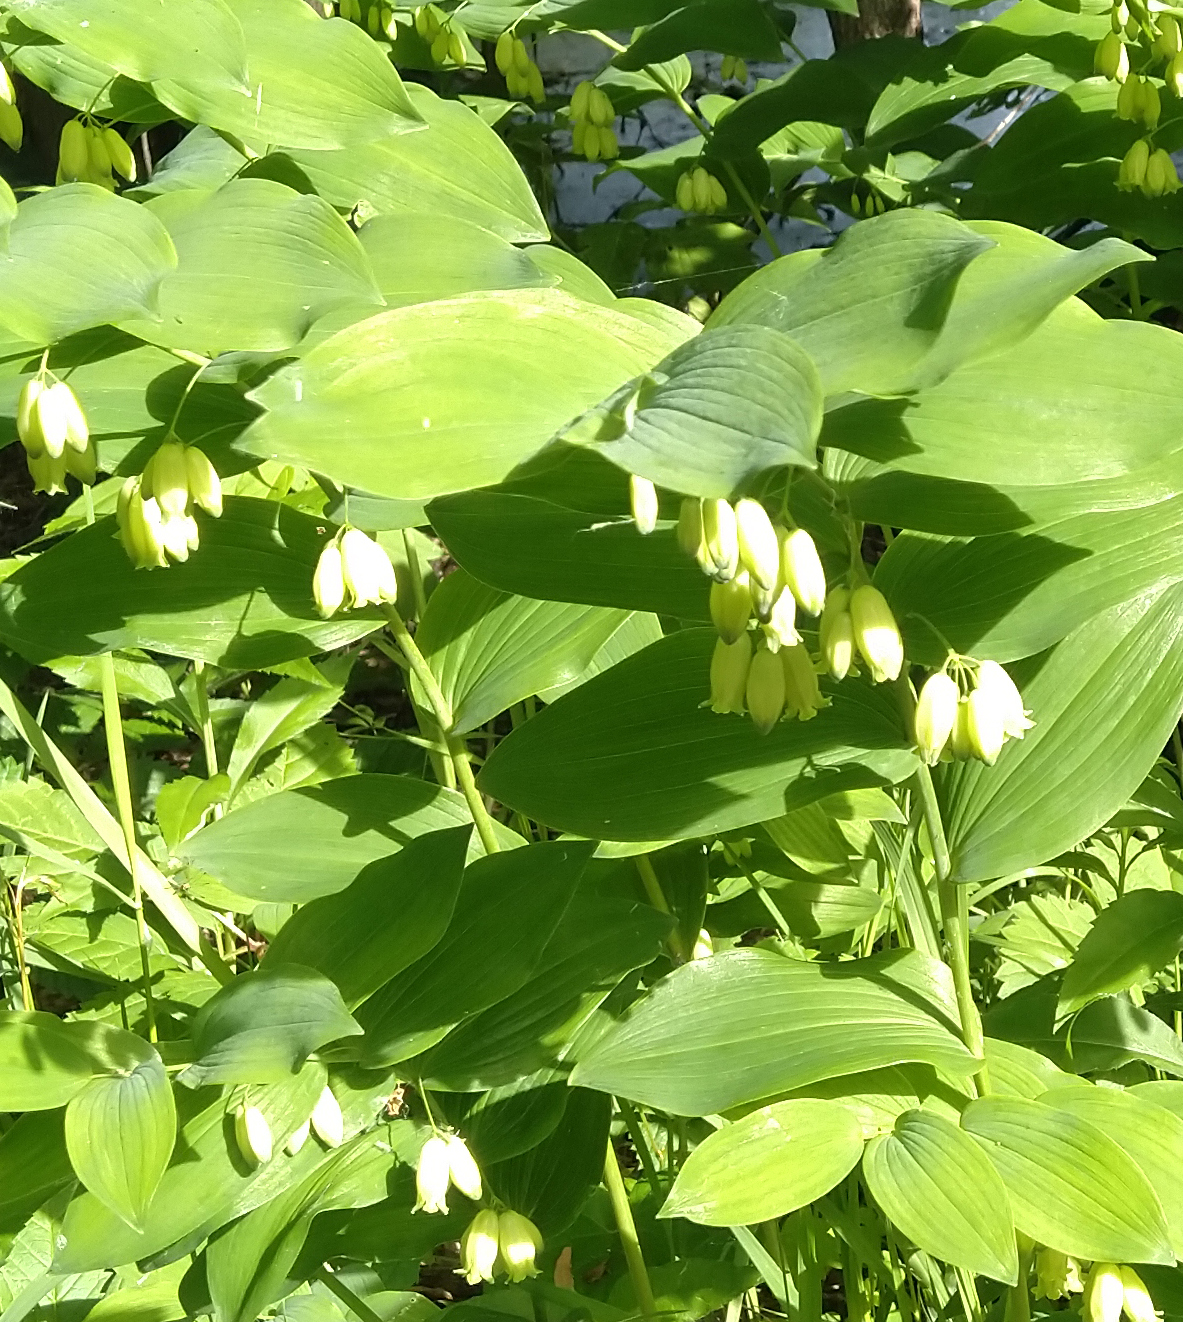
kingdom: Plantae
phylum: Tracheophyta
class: Liliopsida
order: Asparagales
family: Asparagaceae
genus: Polygonatum
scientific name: Polygonatum biflorum
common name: American solomon's-seal
